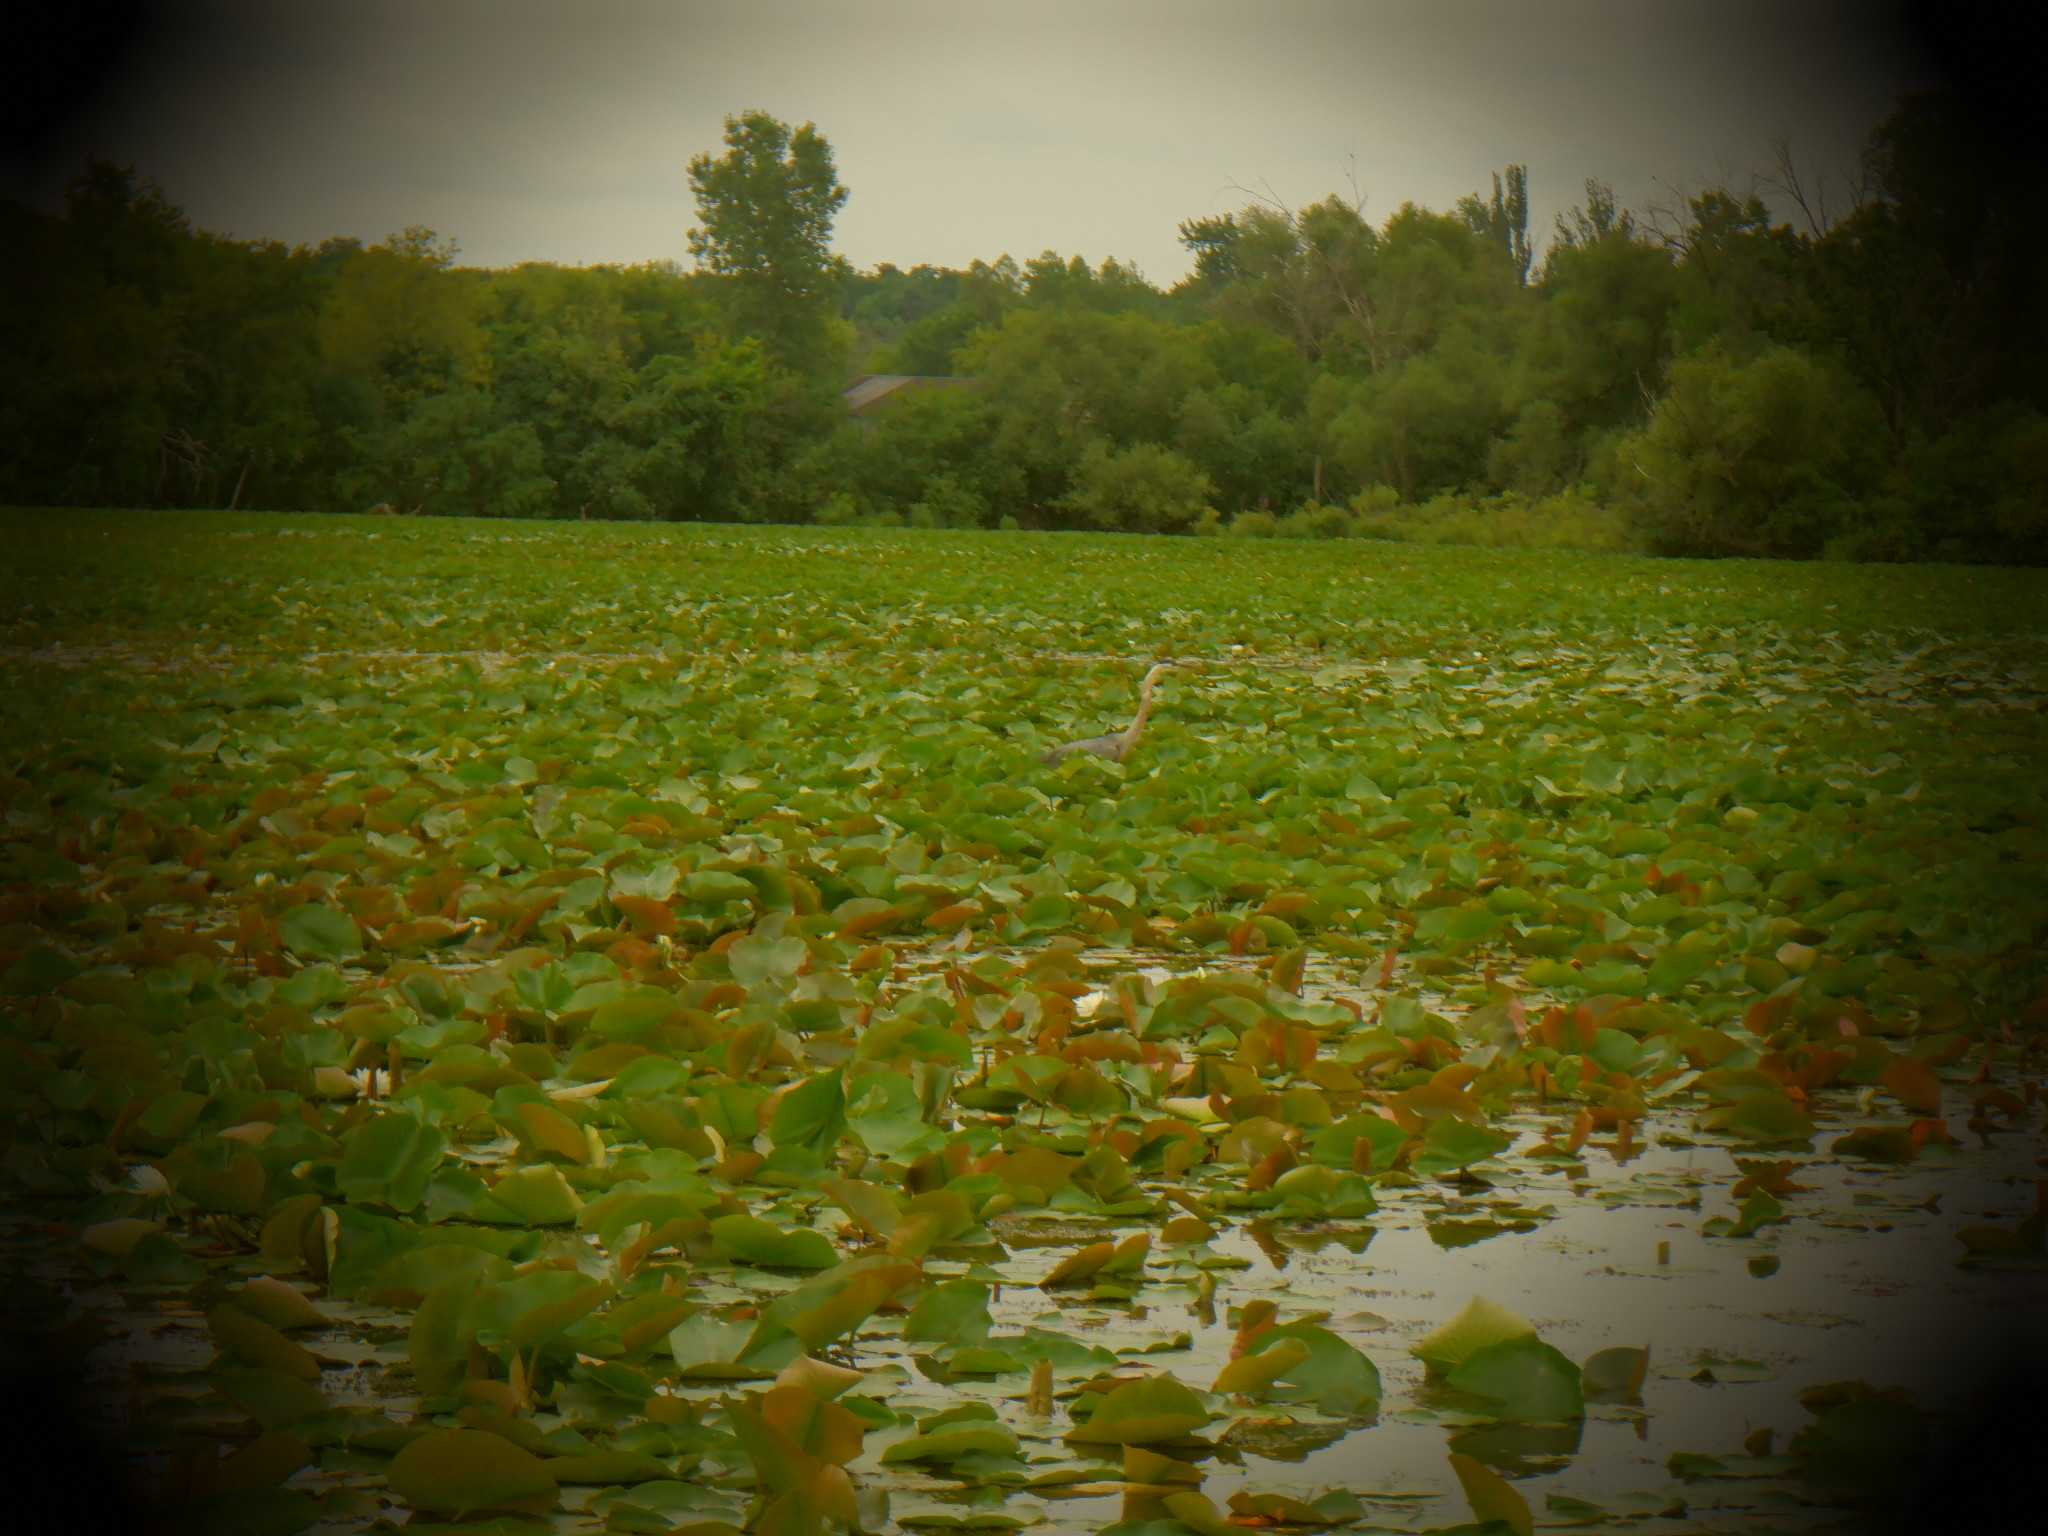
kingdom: Animalia
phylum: Chordata
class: Aves
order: Pelecaniformes
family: Ardeidae
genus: Ardea
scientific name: Ardea herodias
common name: Great blue heron
